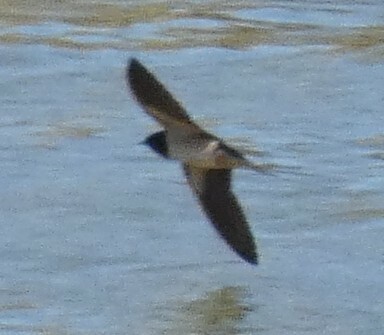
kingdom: Animalia
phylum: Chordata
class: Aves
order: Passeriformes
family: Hirundinidae
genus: Hirundo
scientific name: Hirundo rustica
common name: Barn swallow
